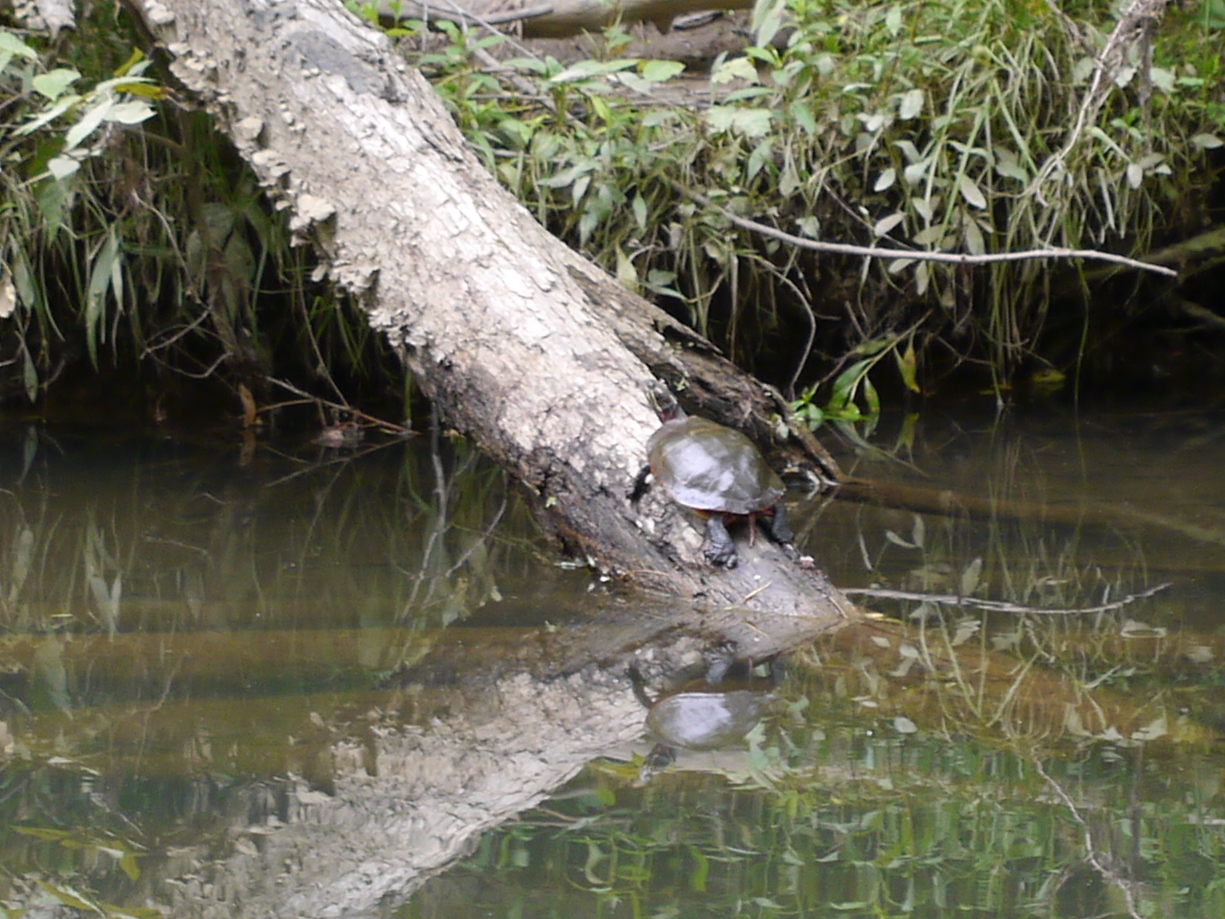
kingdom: Animalia
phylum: Chordata
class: Testudines
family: Emydidae
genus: Chrysemys
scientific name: Chrysemys picta
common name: Painted turtle
